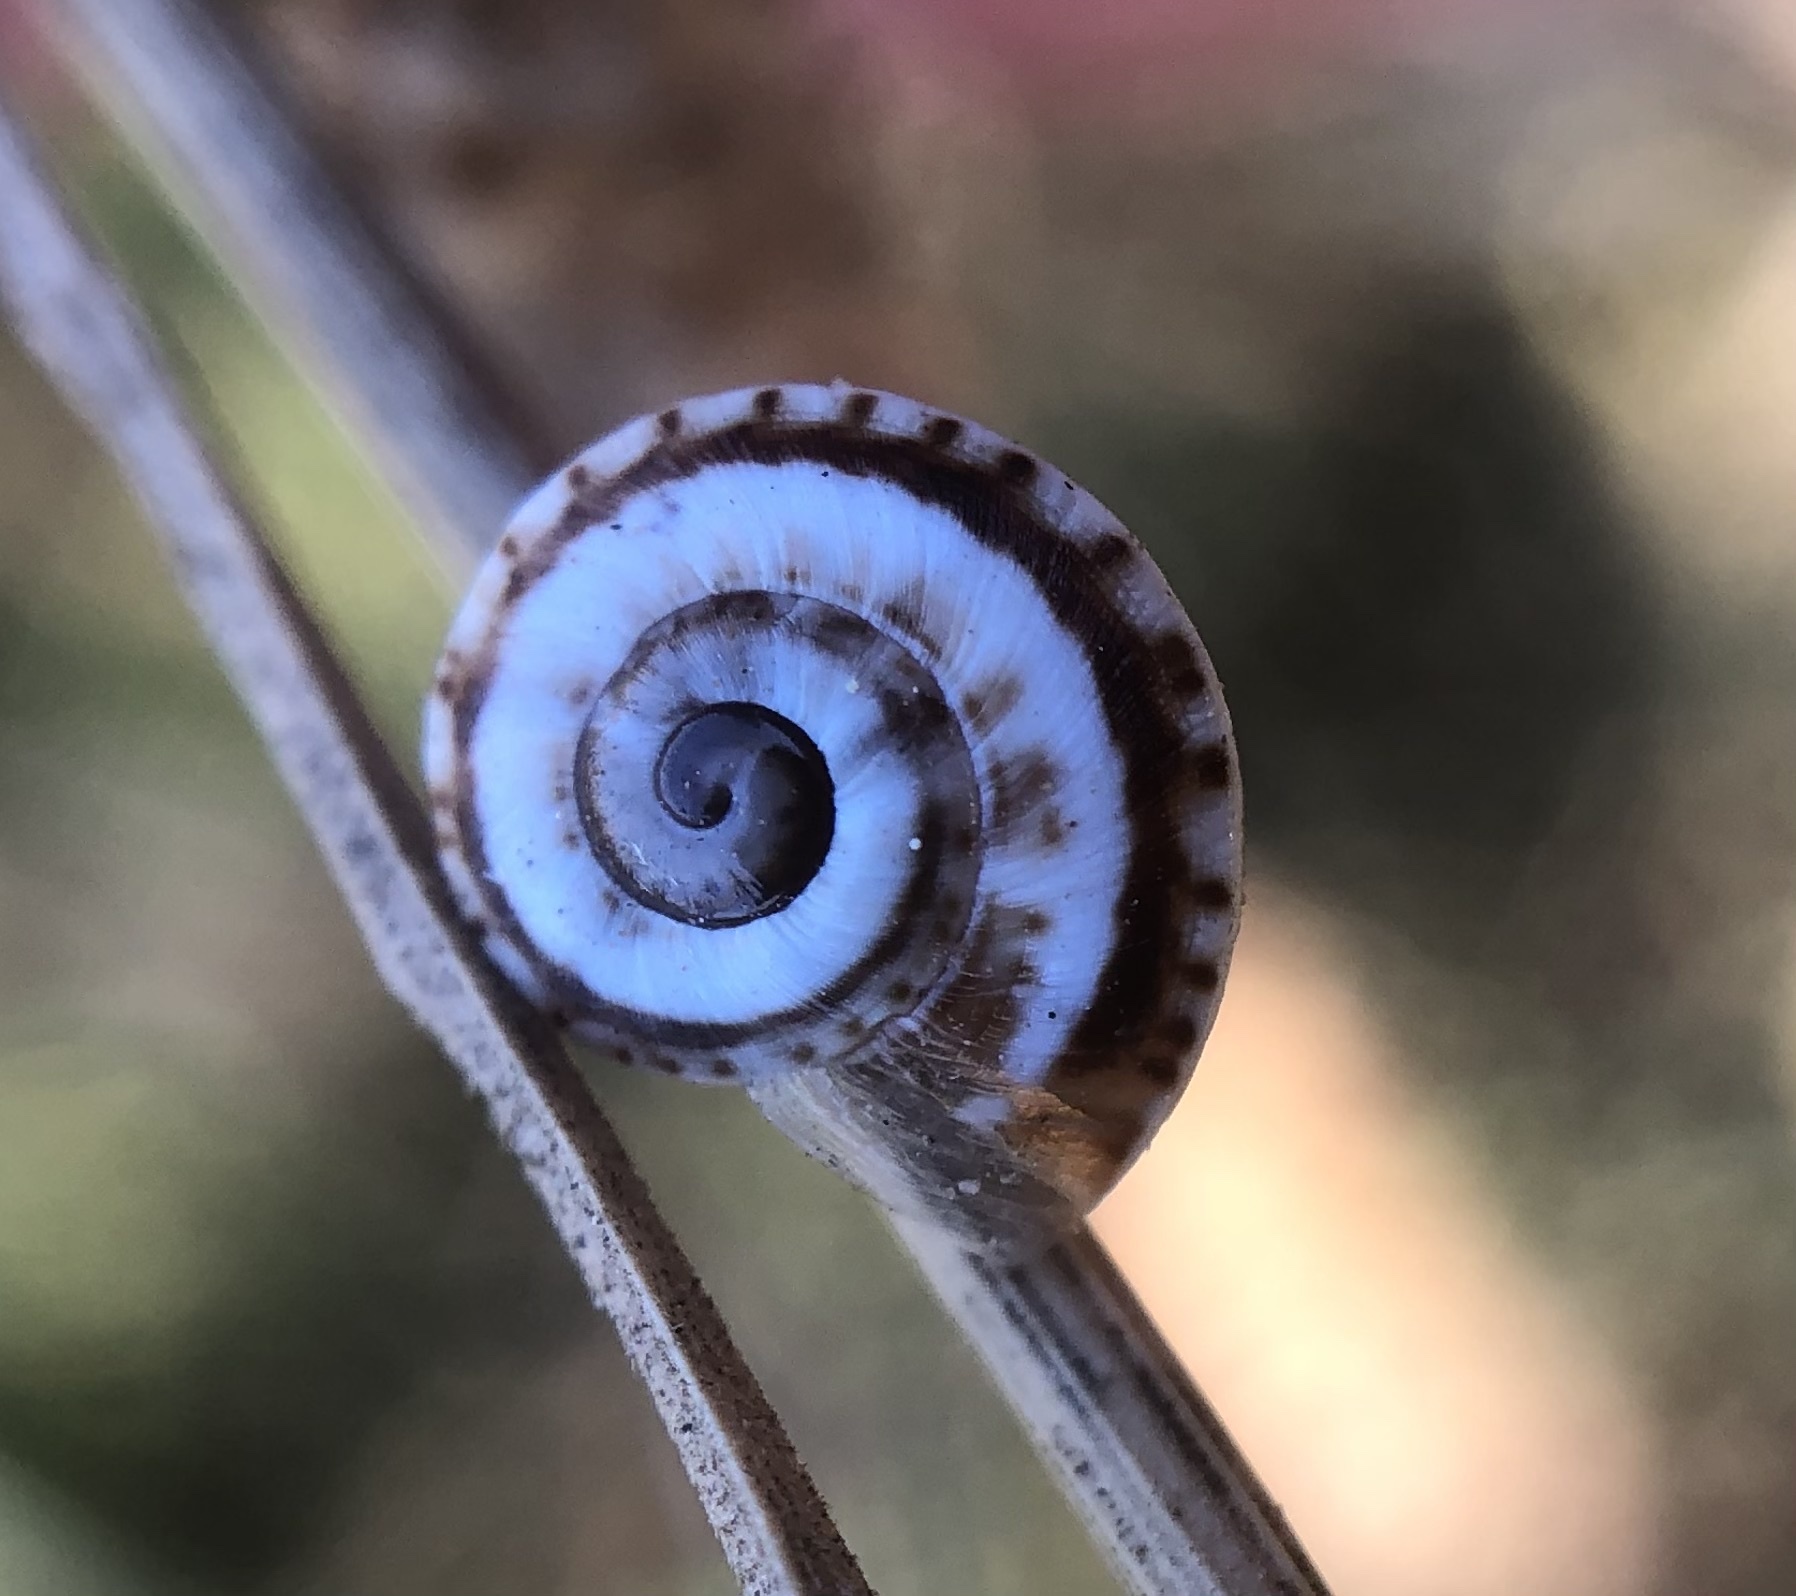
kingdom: Animalia
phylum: Mollusca
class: Gastropoda
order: Stylommatophora
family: Helicidae
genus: Theba
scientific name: Theba pisana
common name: White snail
